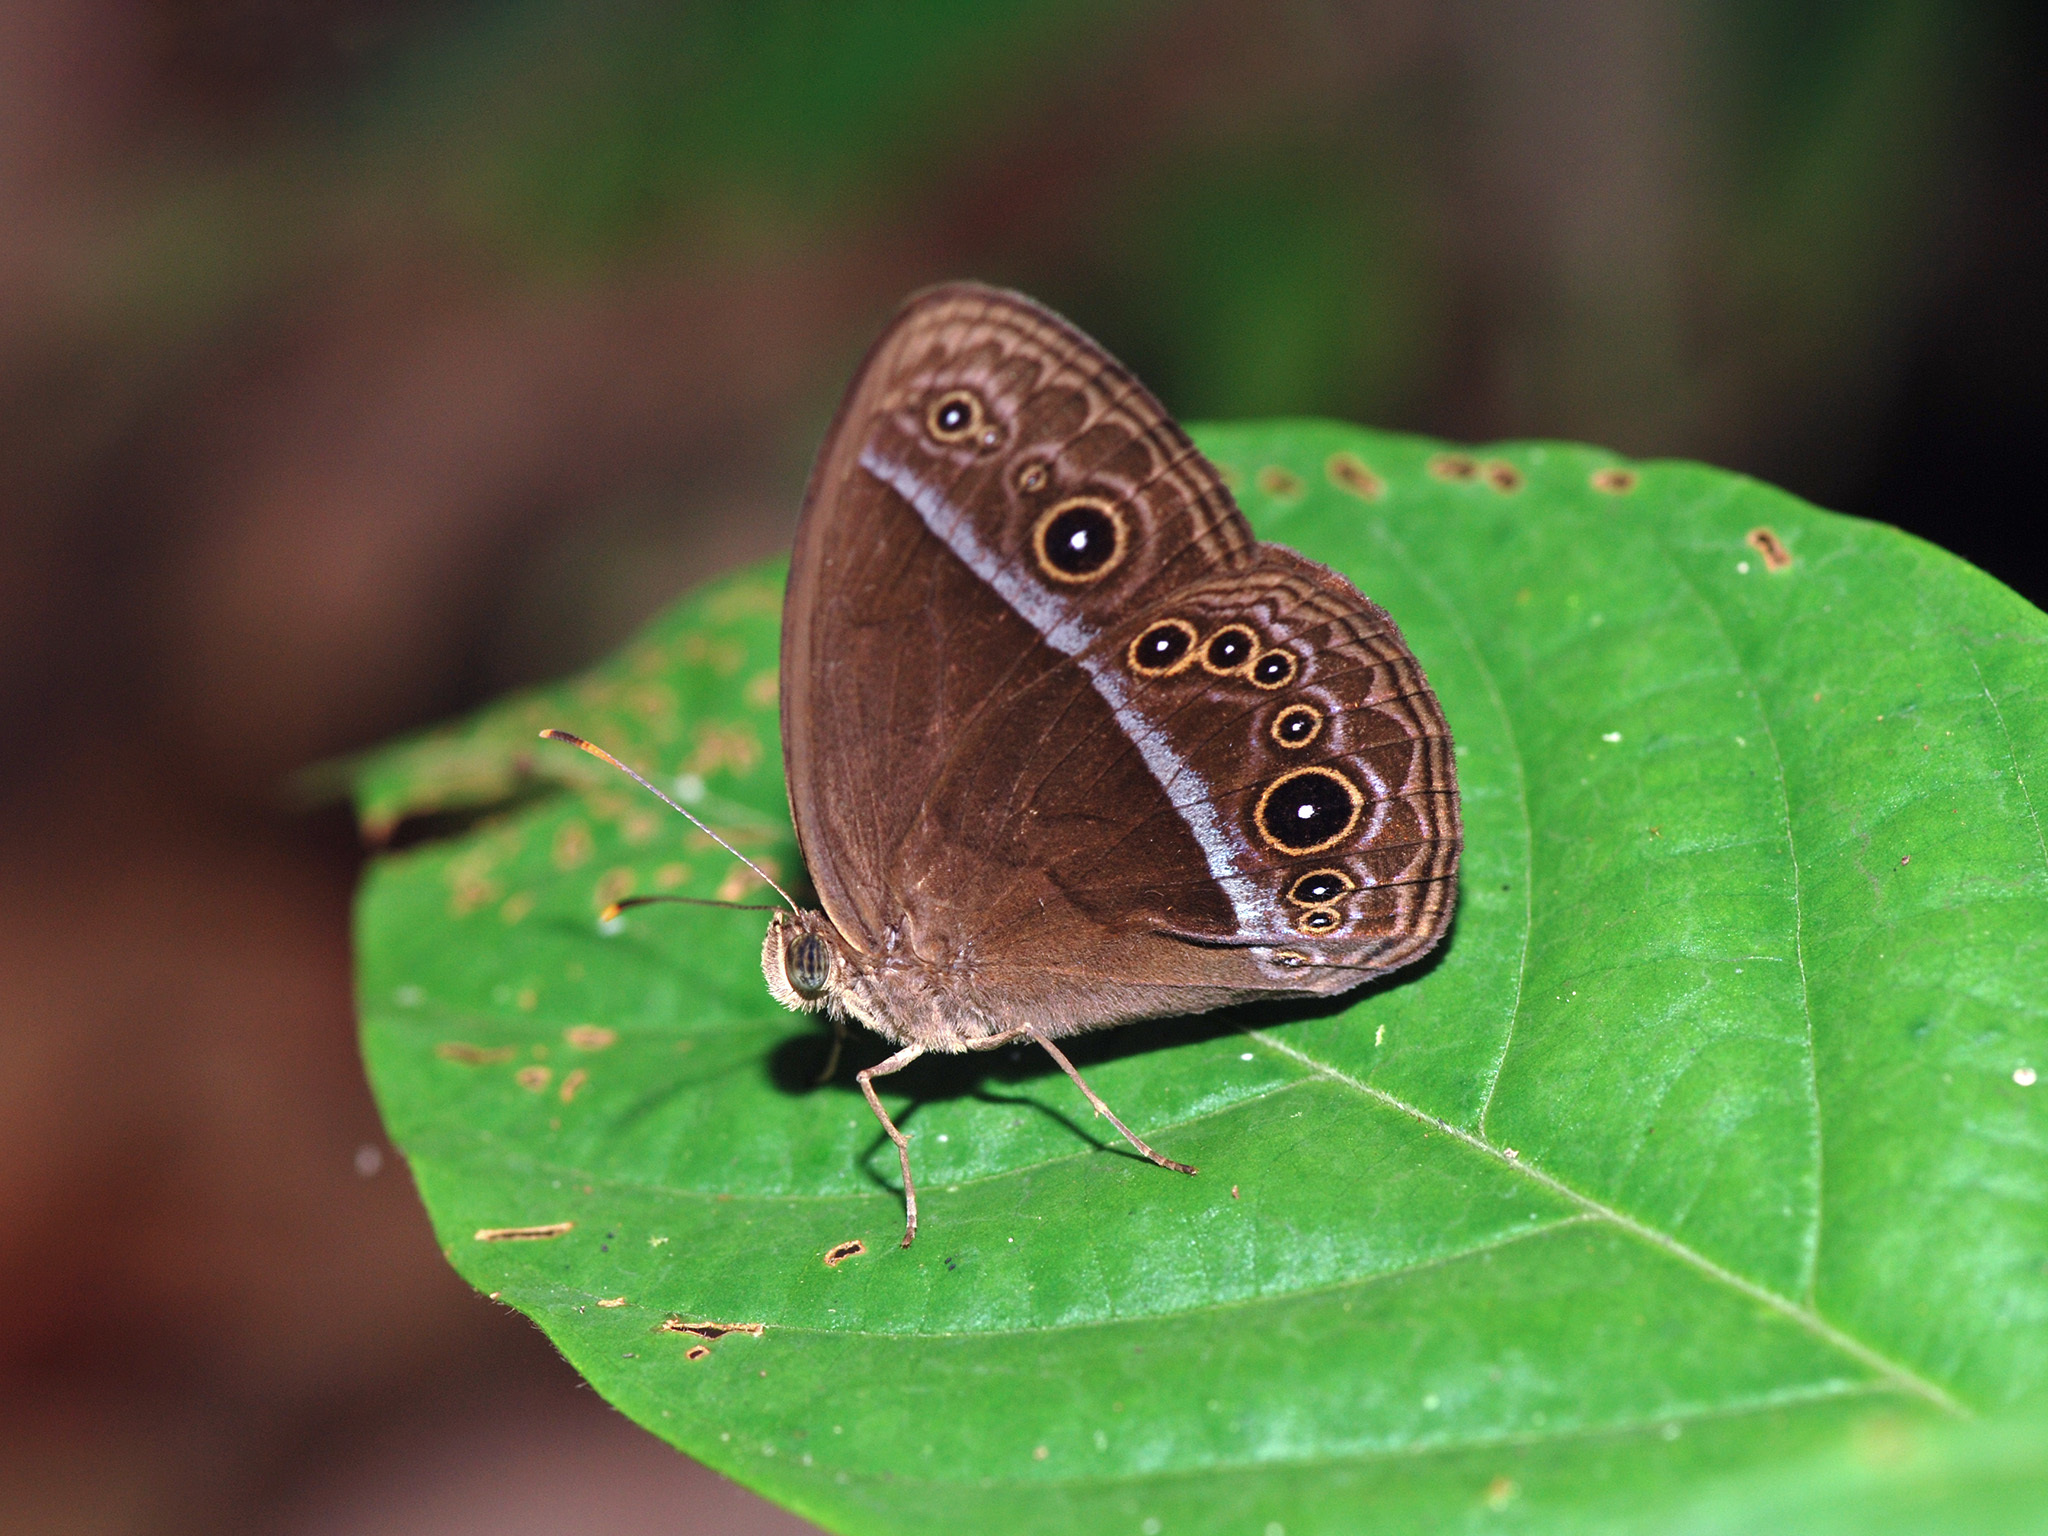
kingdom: Animalia
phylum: Arthropoda
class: Insecta
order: Lepidoptera
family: Nymphalidae
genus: Mycalesis
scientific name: Mycalesis oroatis
